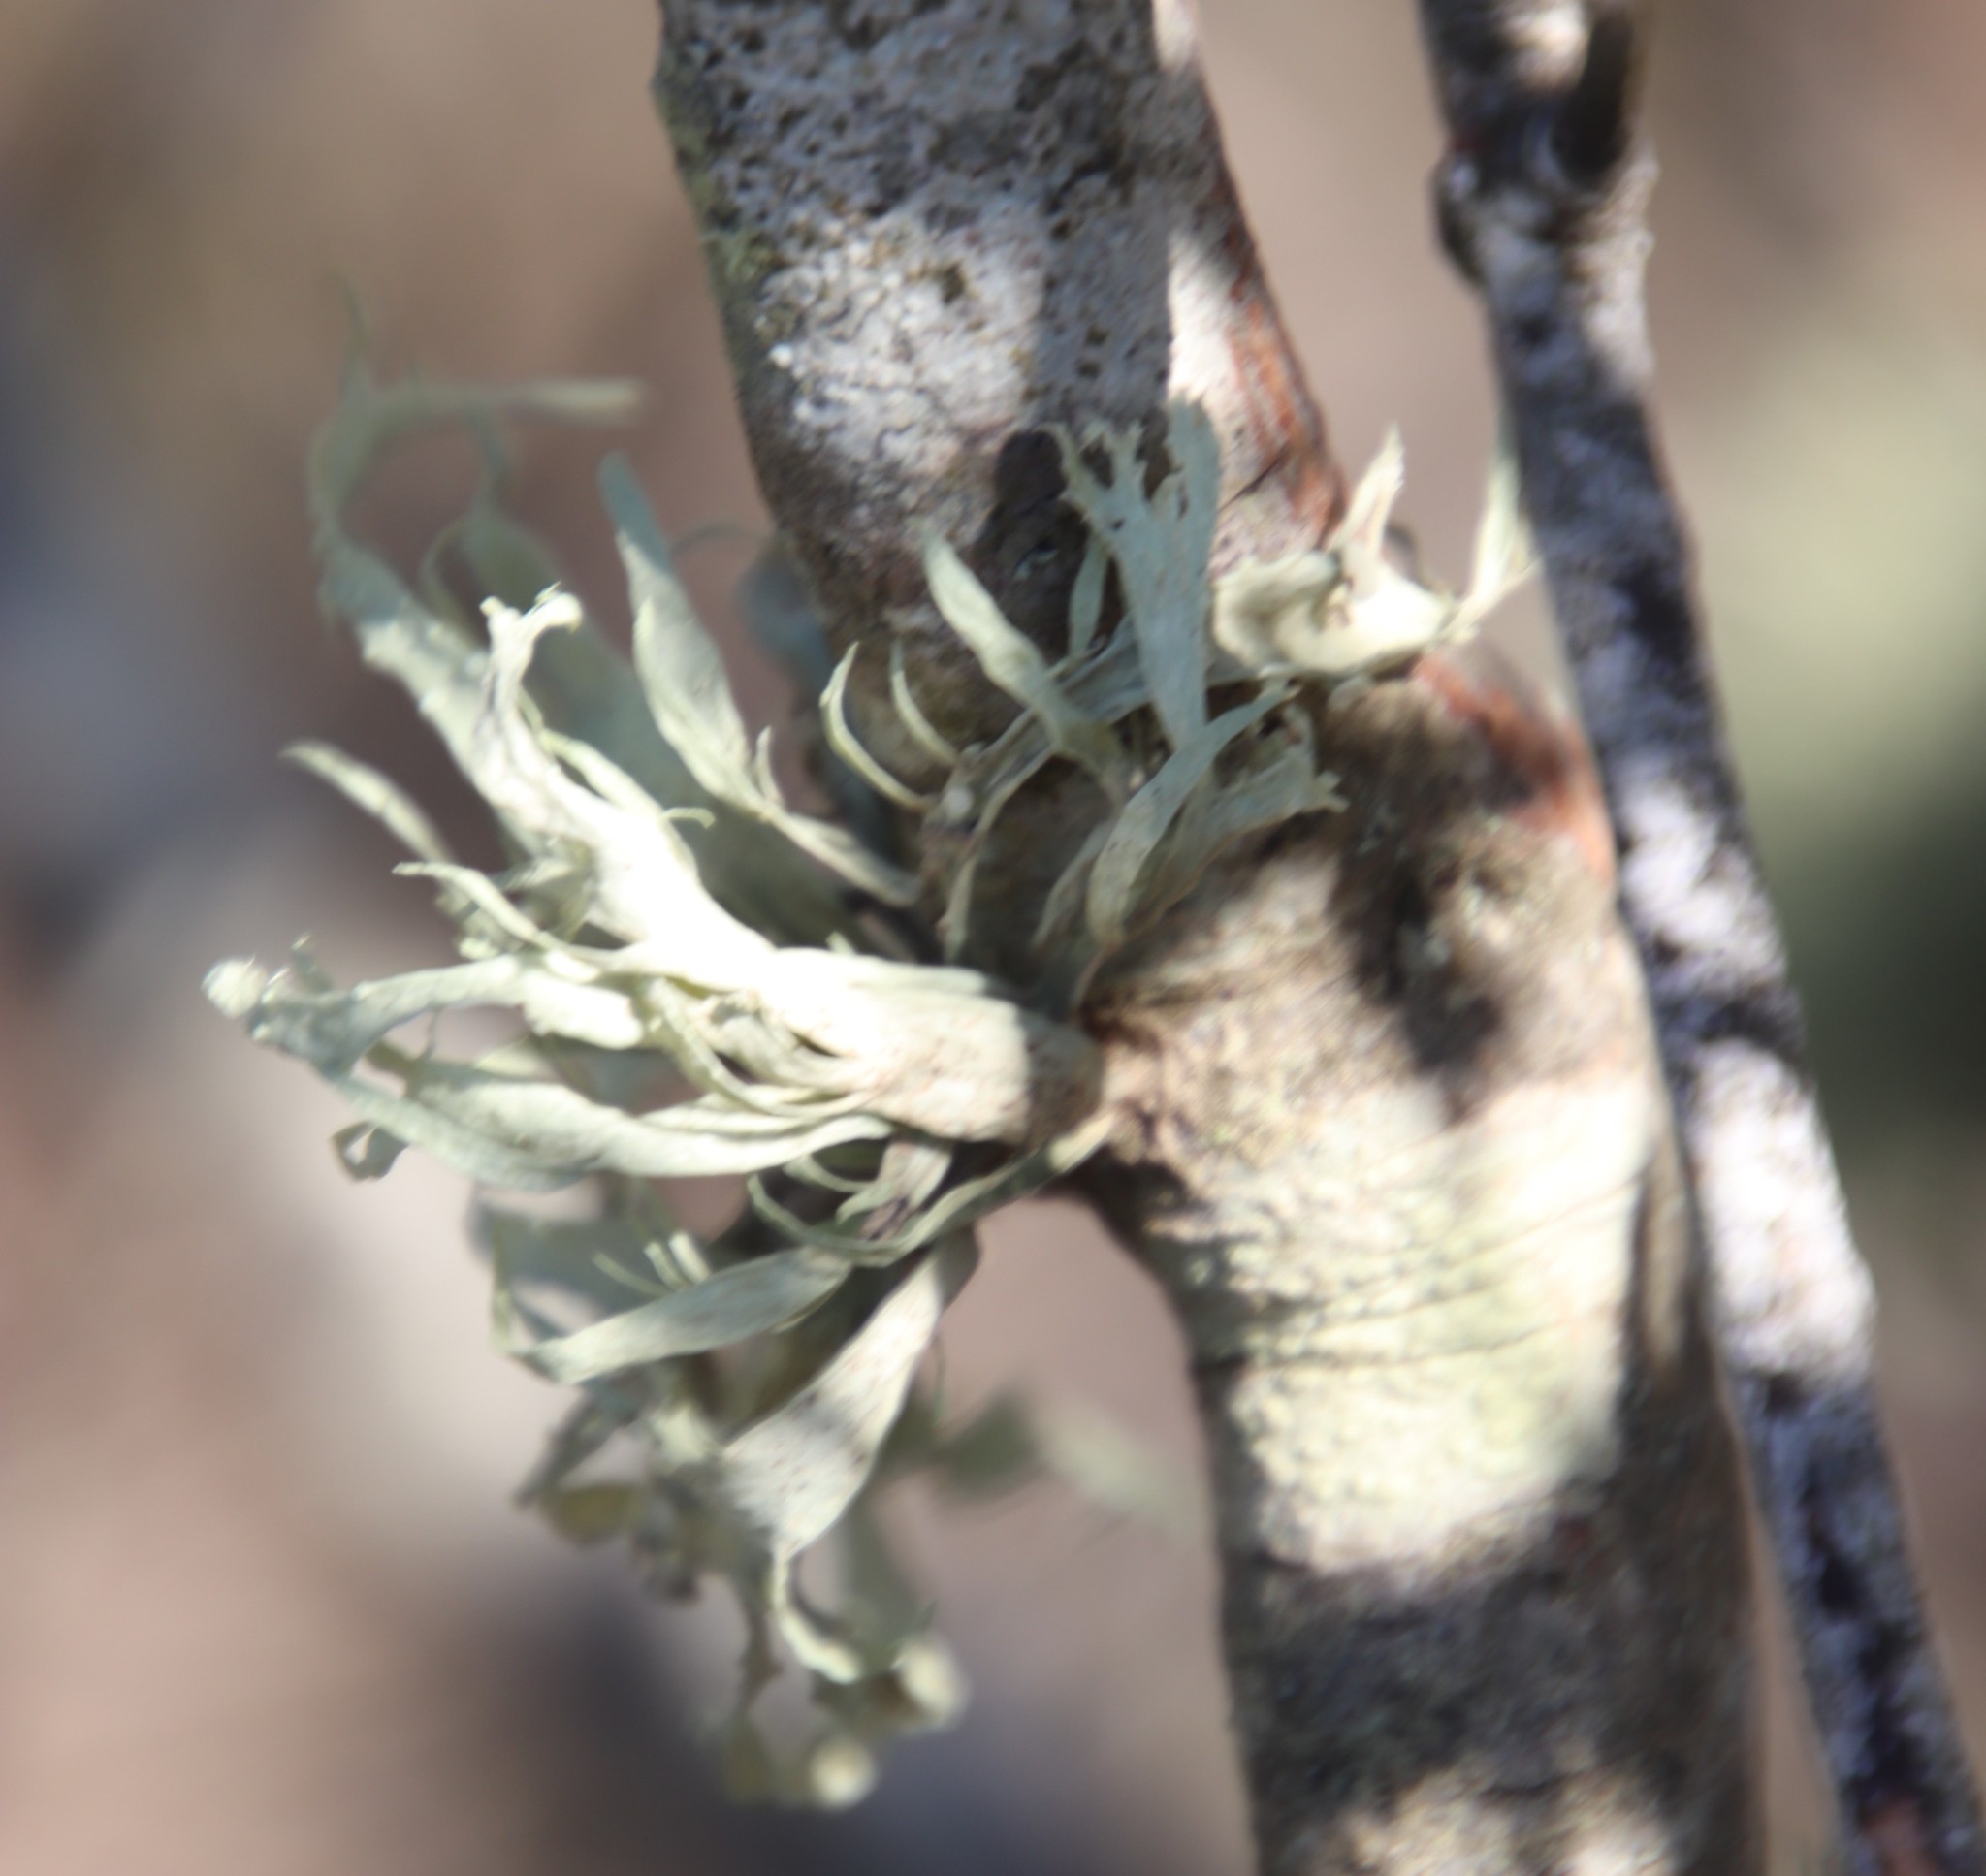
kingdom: Fungi
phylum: Ascomycota
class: Lecanoromycetes
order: Lecanorales
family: Ramalinaceae
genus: Ramalina
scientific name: Ramalina celastri
